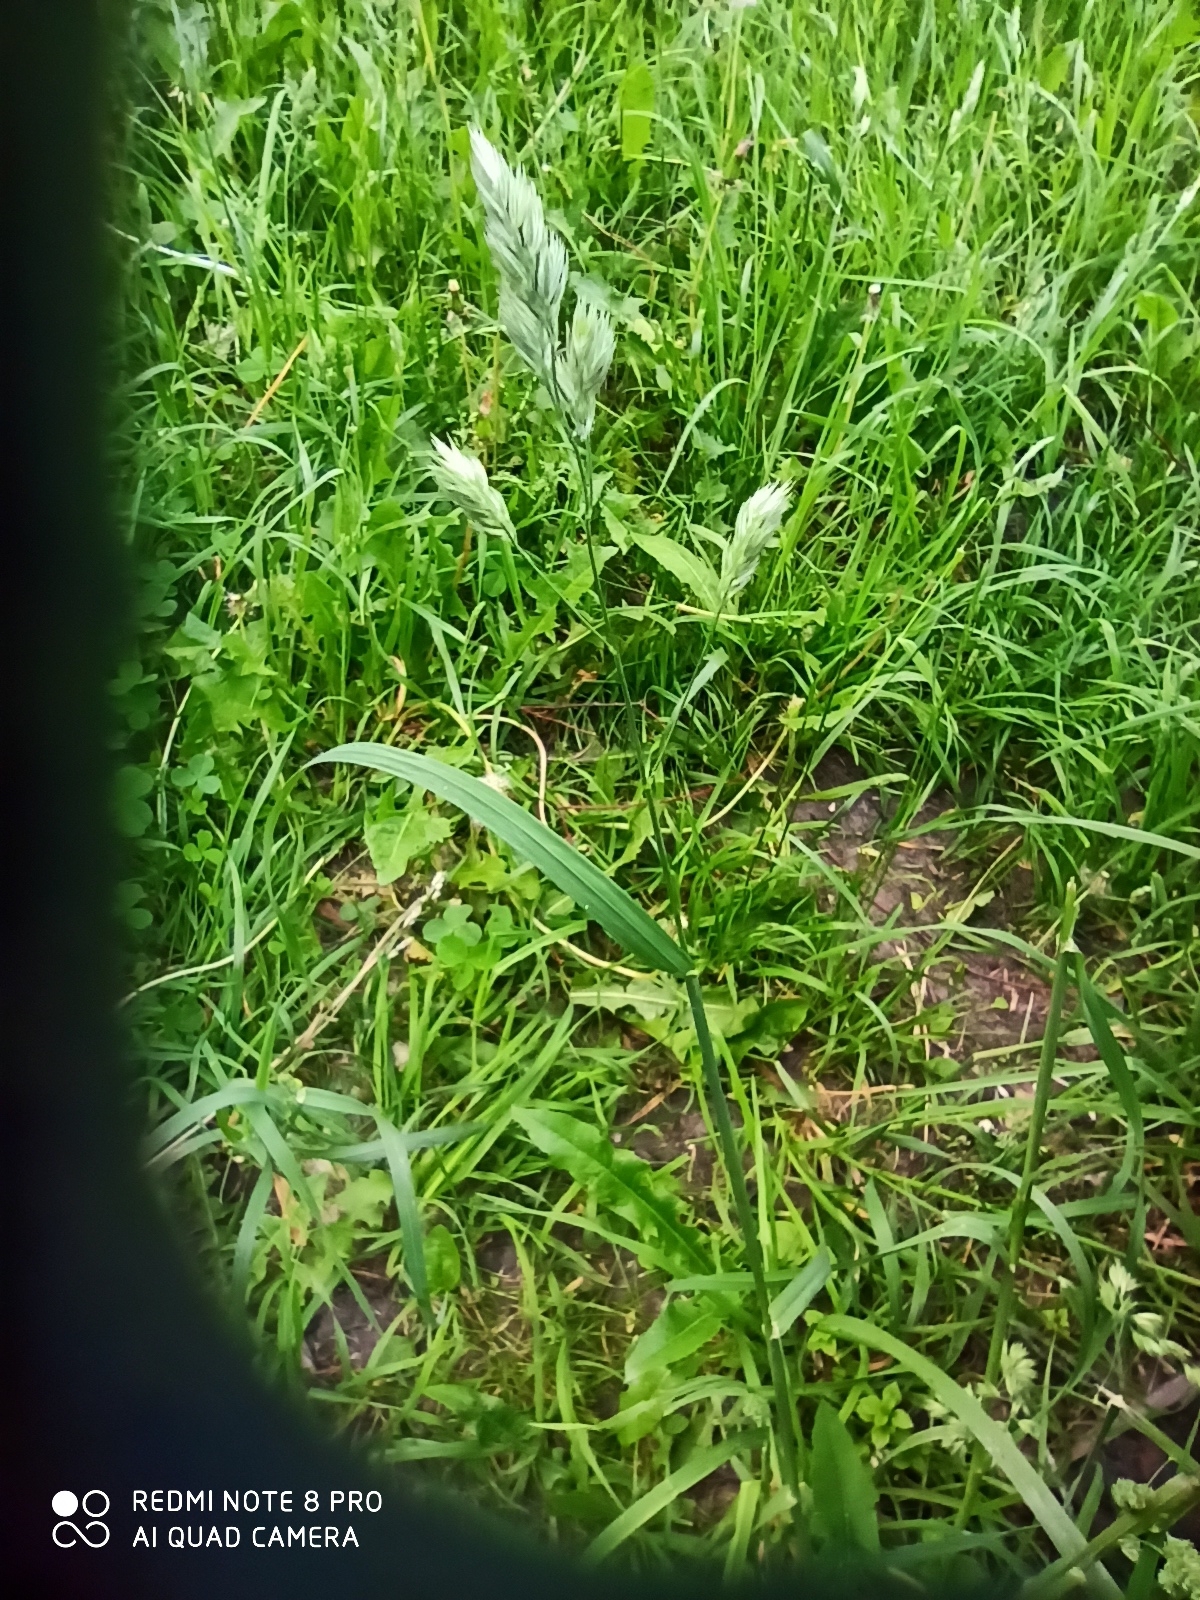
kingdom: Plantae
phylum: Tracheophyta
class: Liliopsida
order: Poales
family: Poaceae
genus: Dactylis
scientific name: Dactylis glomerata
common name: Orchardgrass
